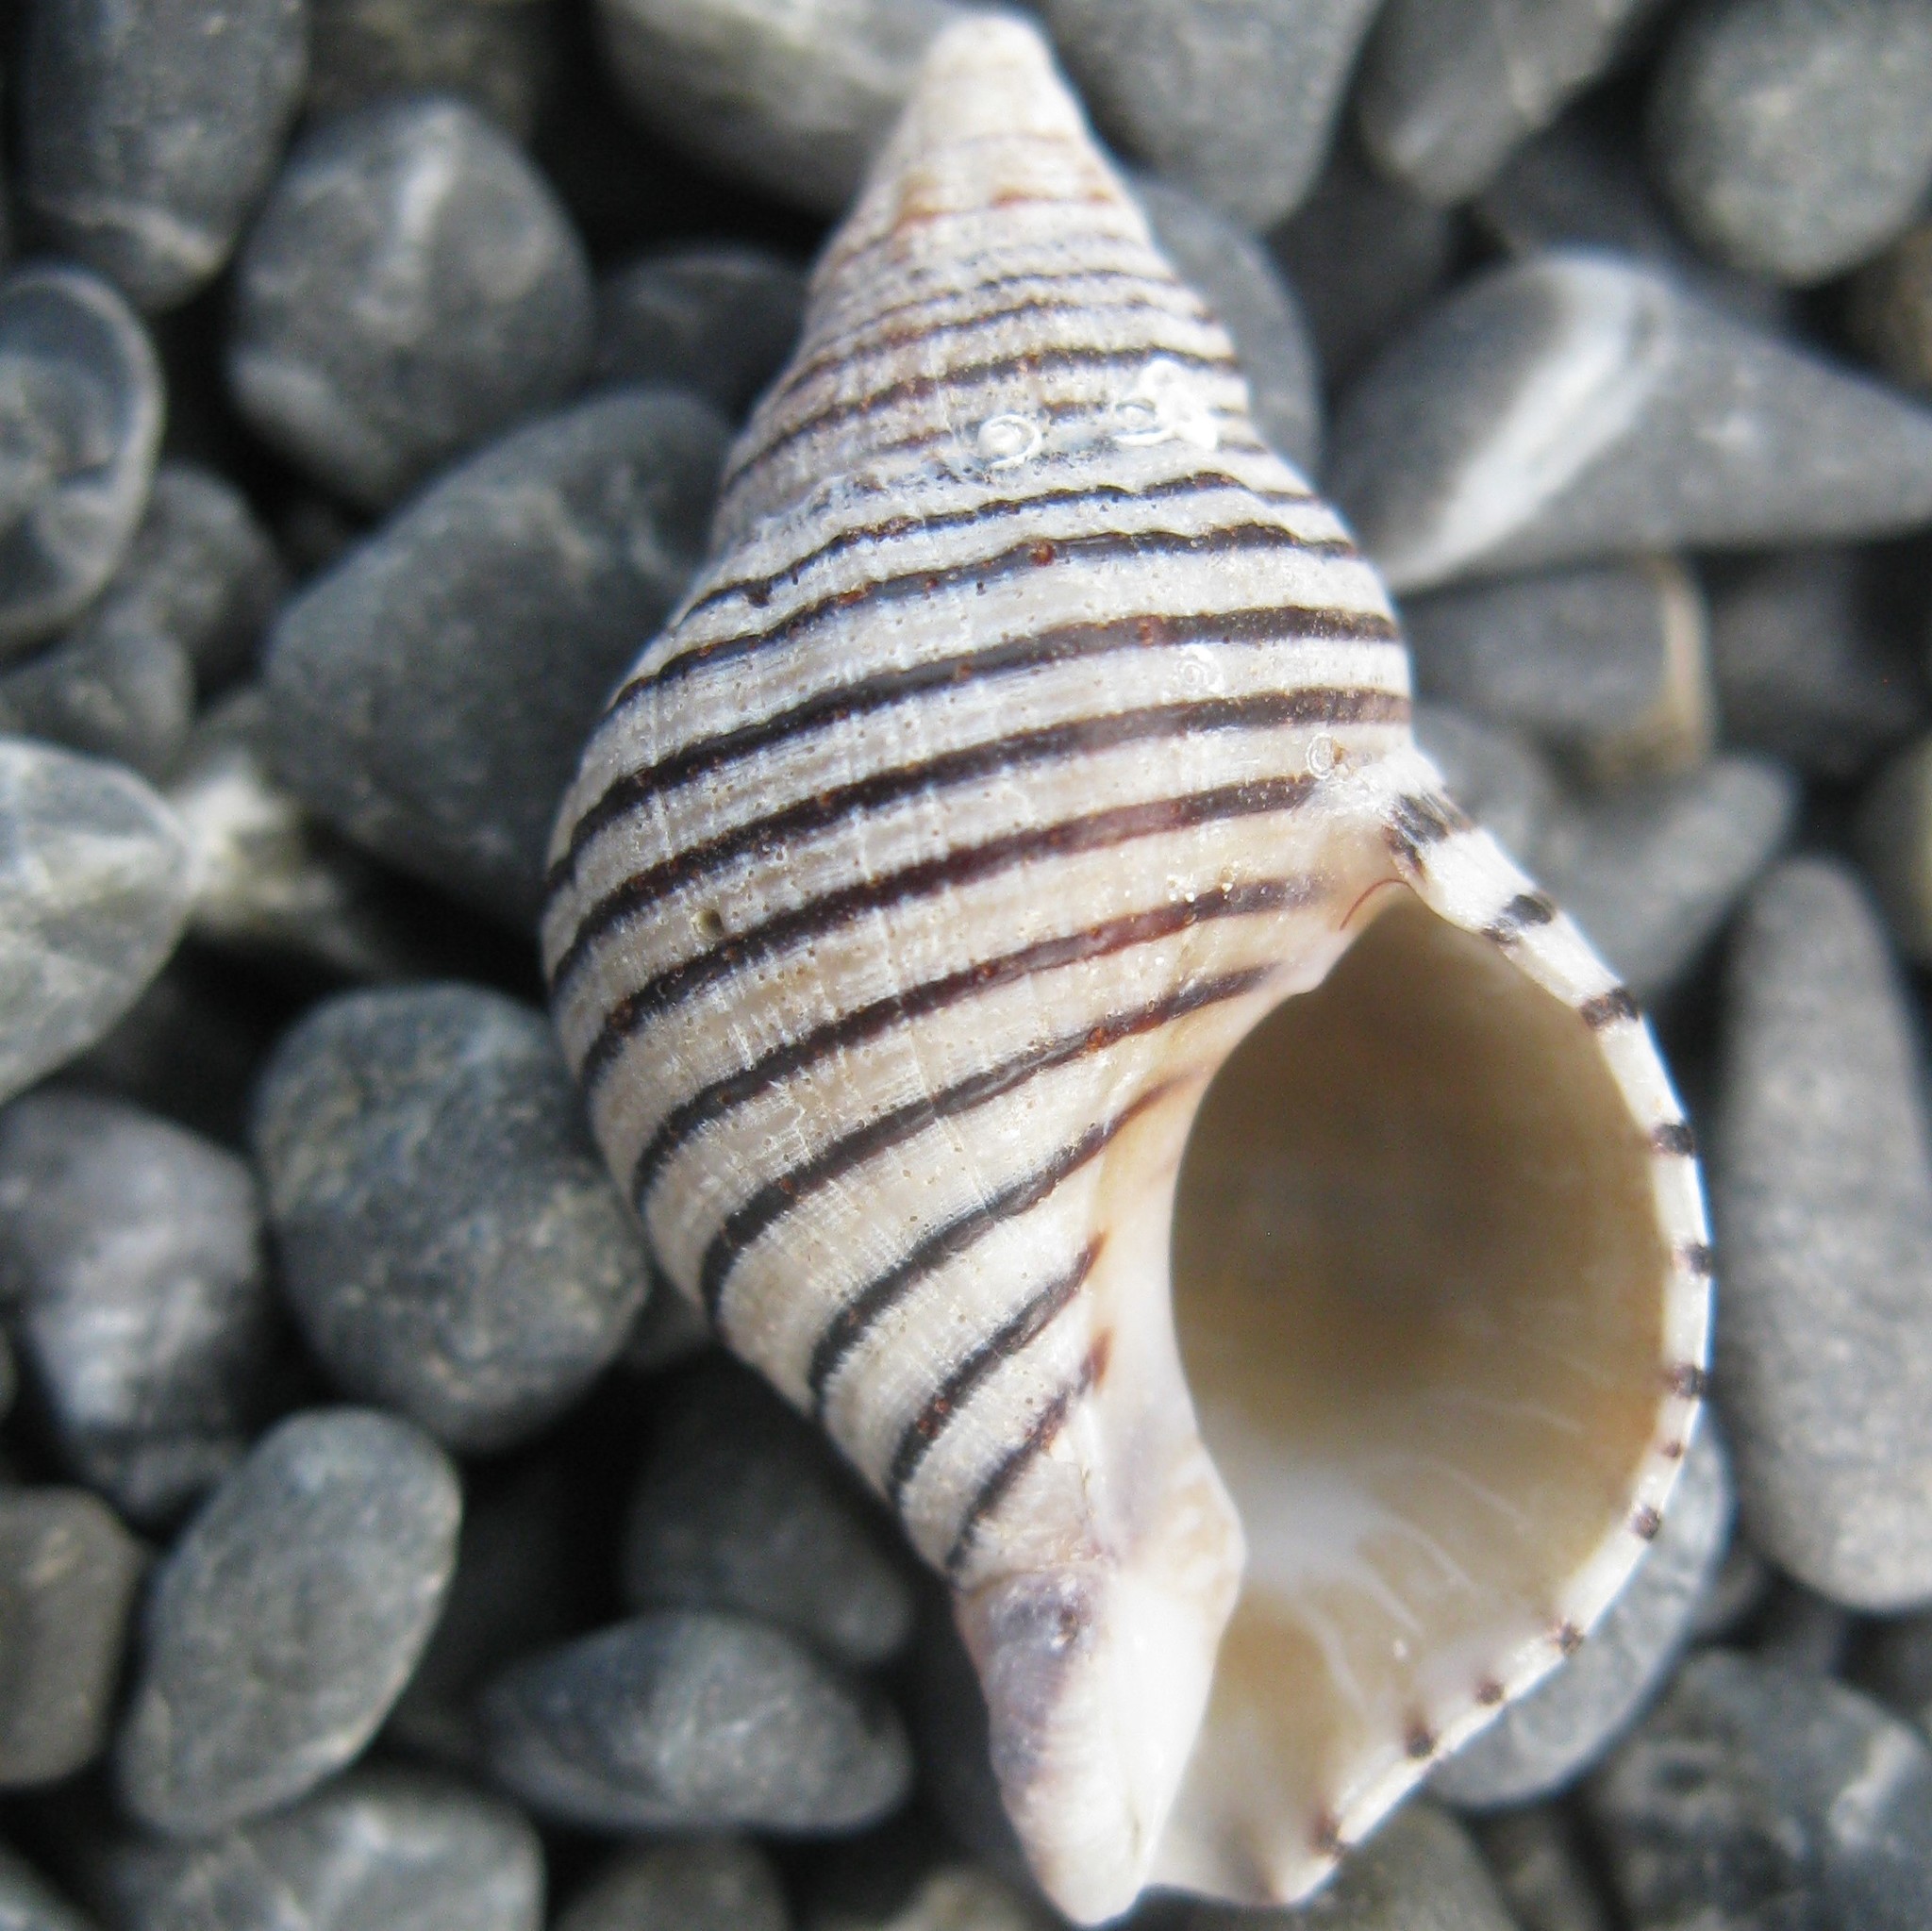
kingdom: Animalia
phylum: Mollusca
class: Gastropoda
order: Neogastropoda
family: Tudiclidae
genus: Buccinulum
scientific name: Buccinulum linea
